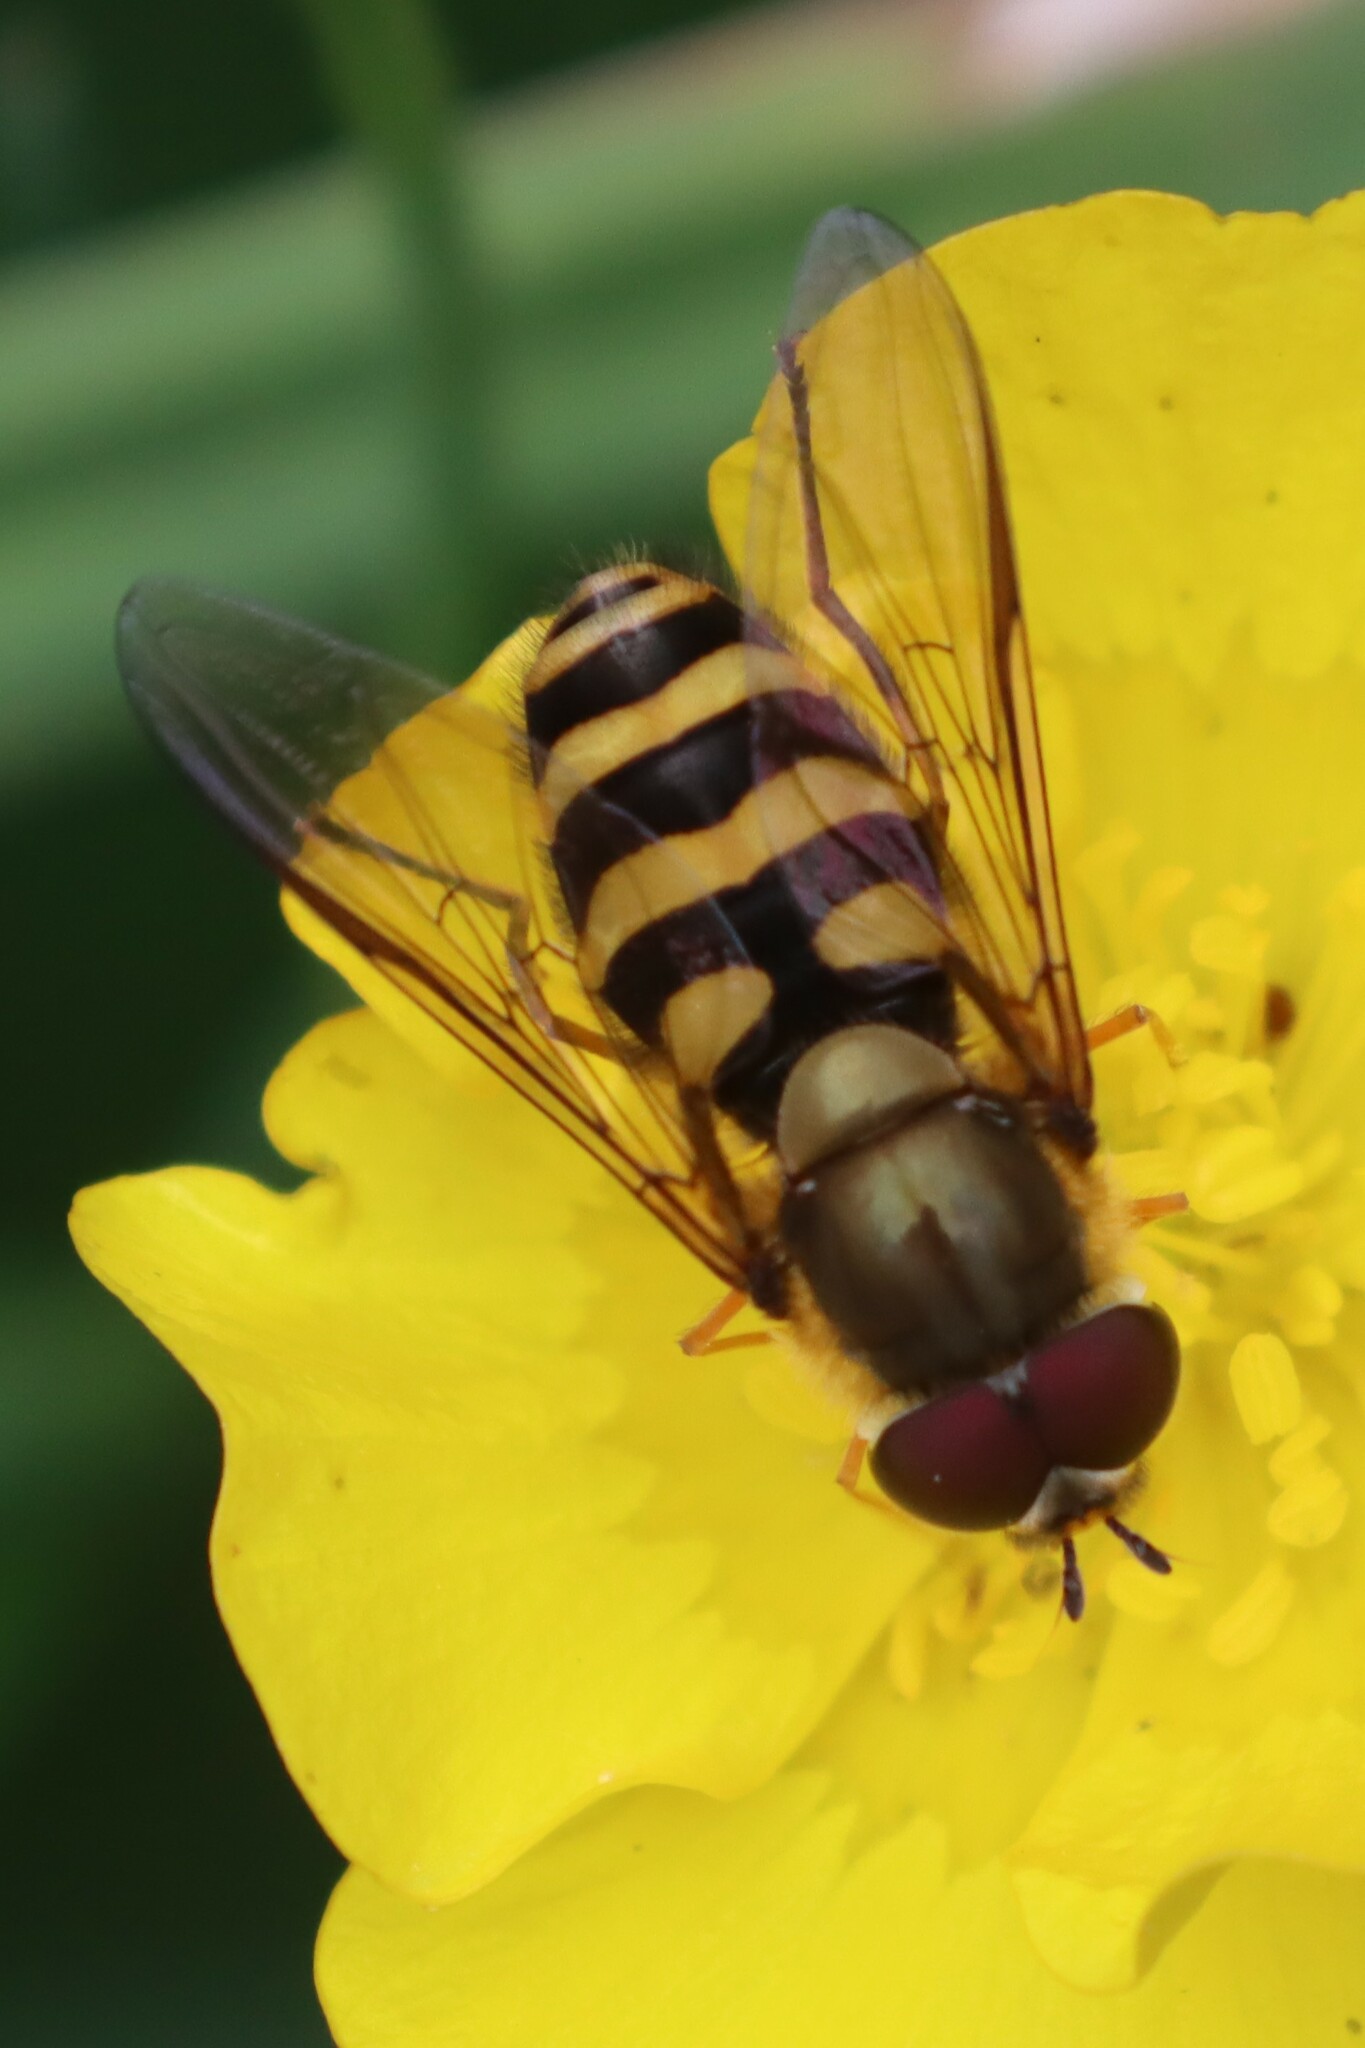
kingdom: Animalia
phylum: Arthropoda
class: Insecta
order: Diptera
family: Syrphidae
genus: Syrphus
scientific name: Syrphus
